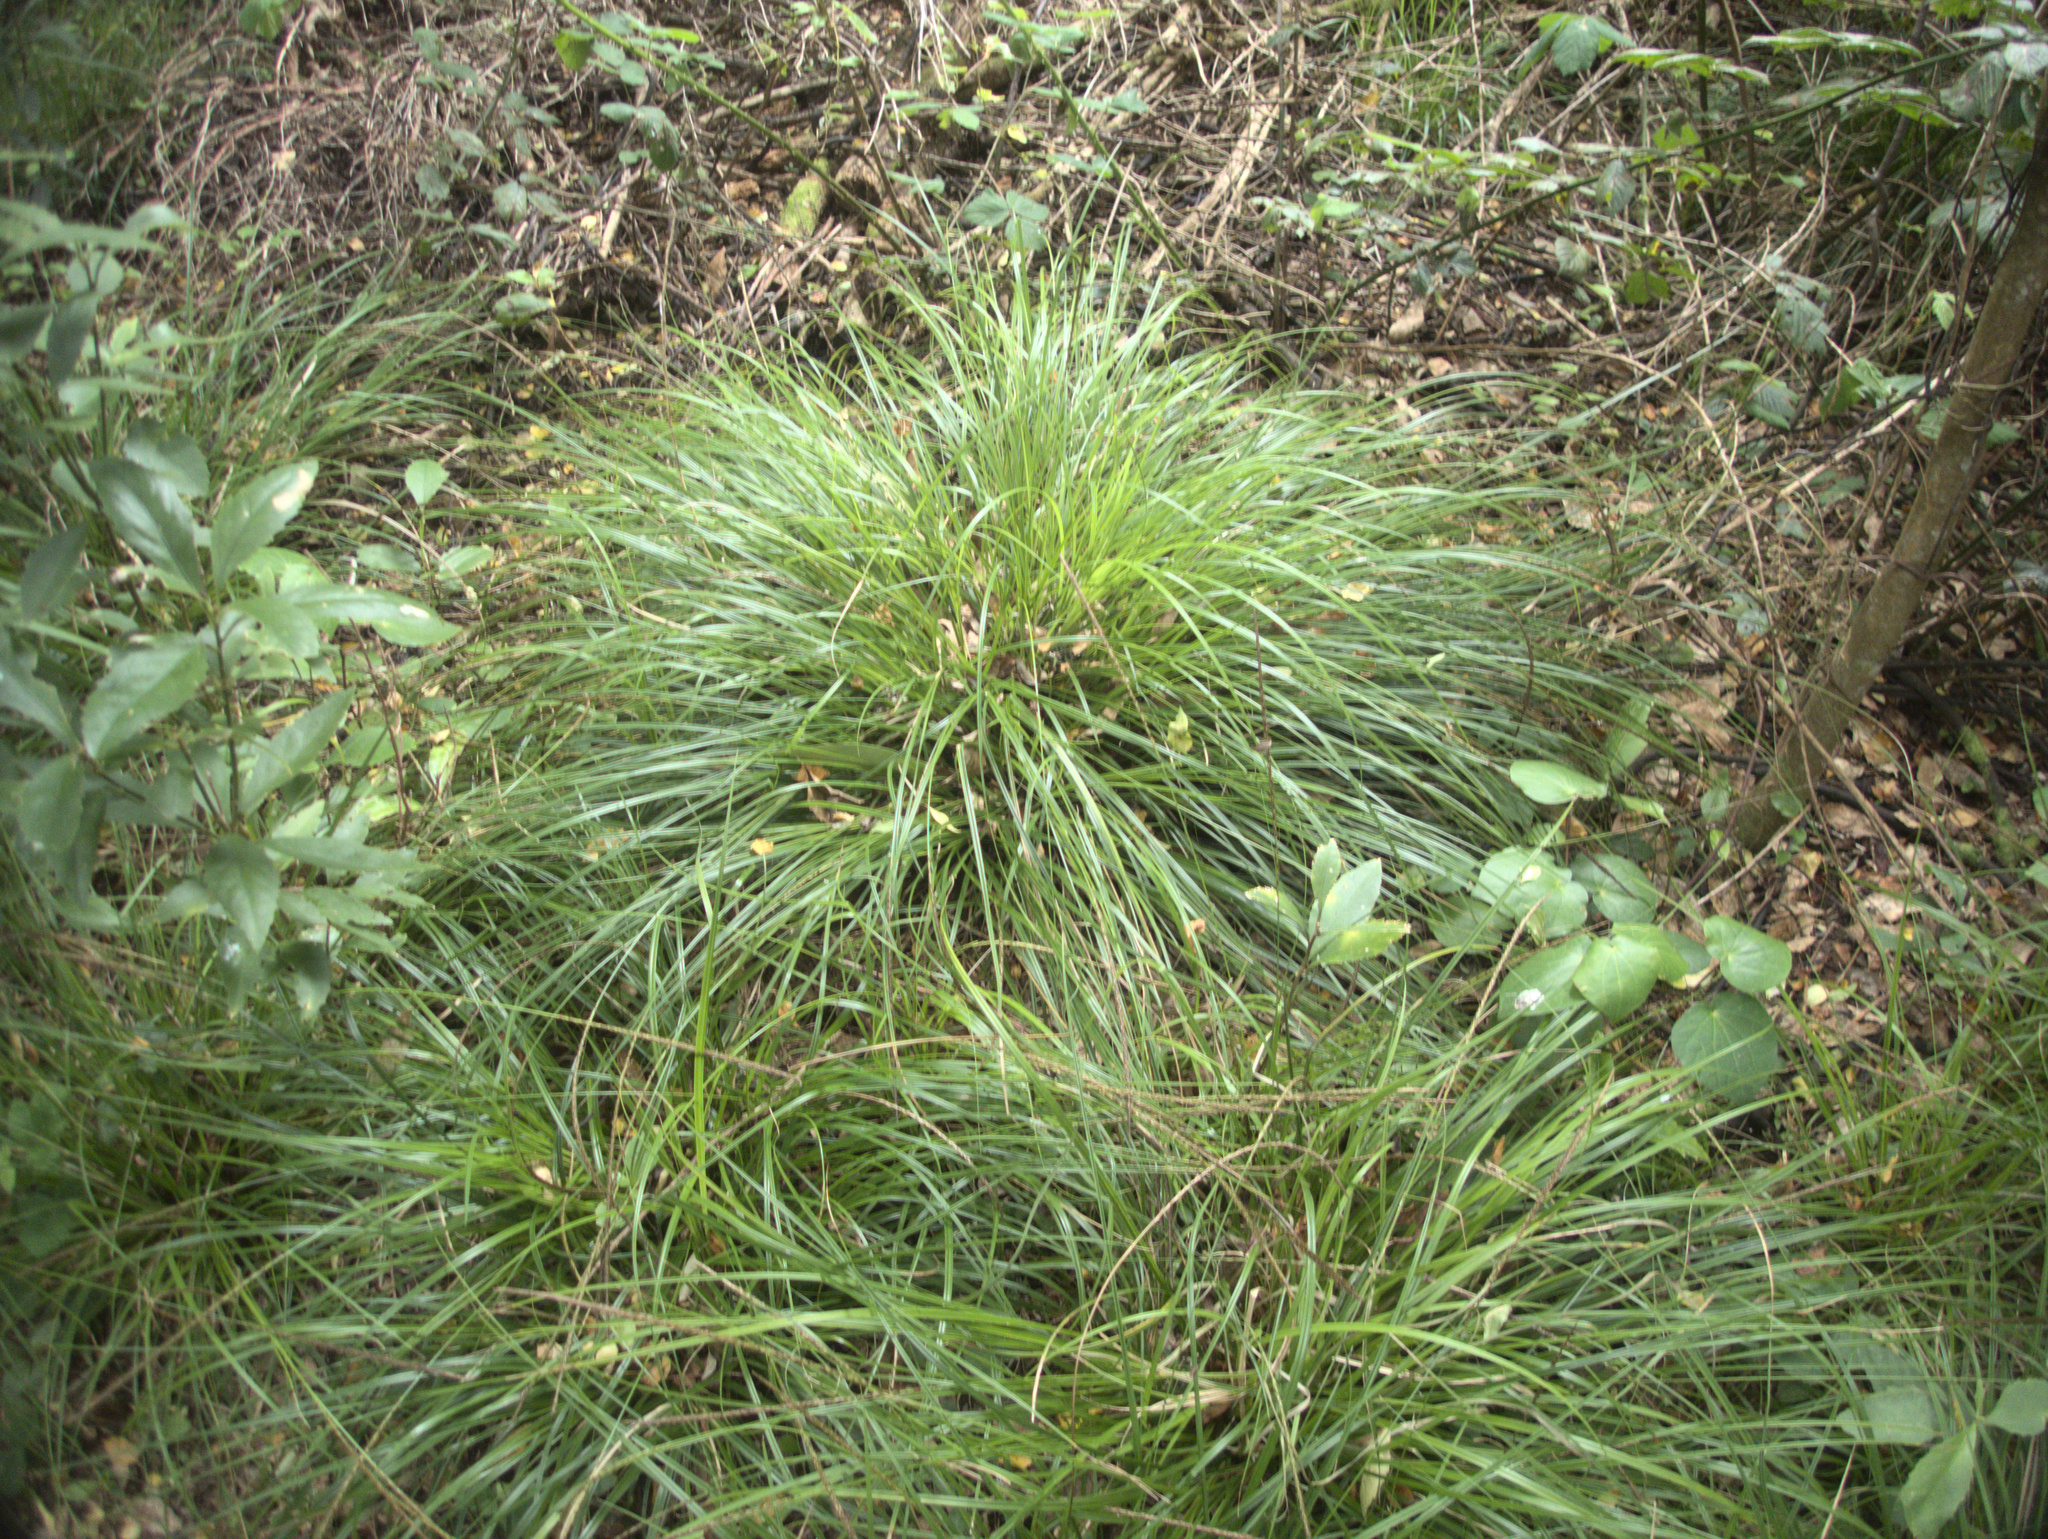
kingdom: Plantae
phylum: Tracheophyta
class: Liliopsida
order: Poales
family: Cyperaceae
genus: Carex
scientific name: Carex auceps
